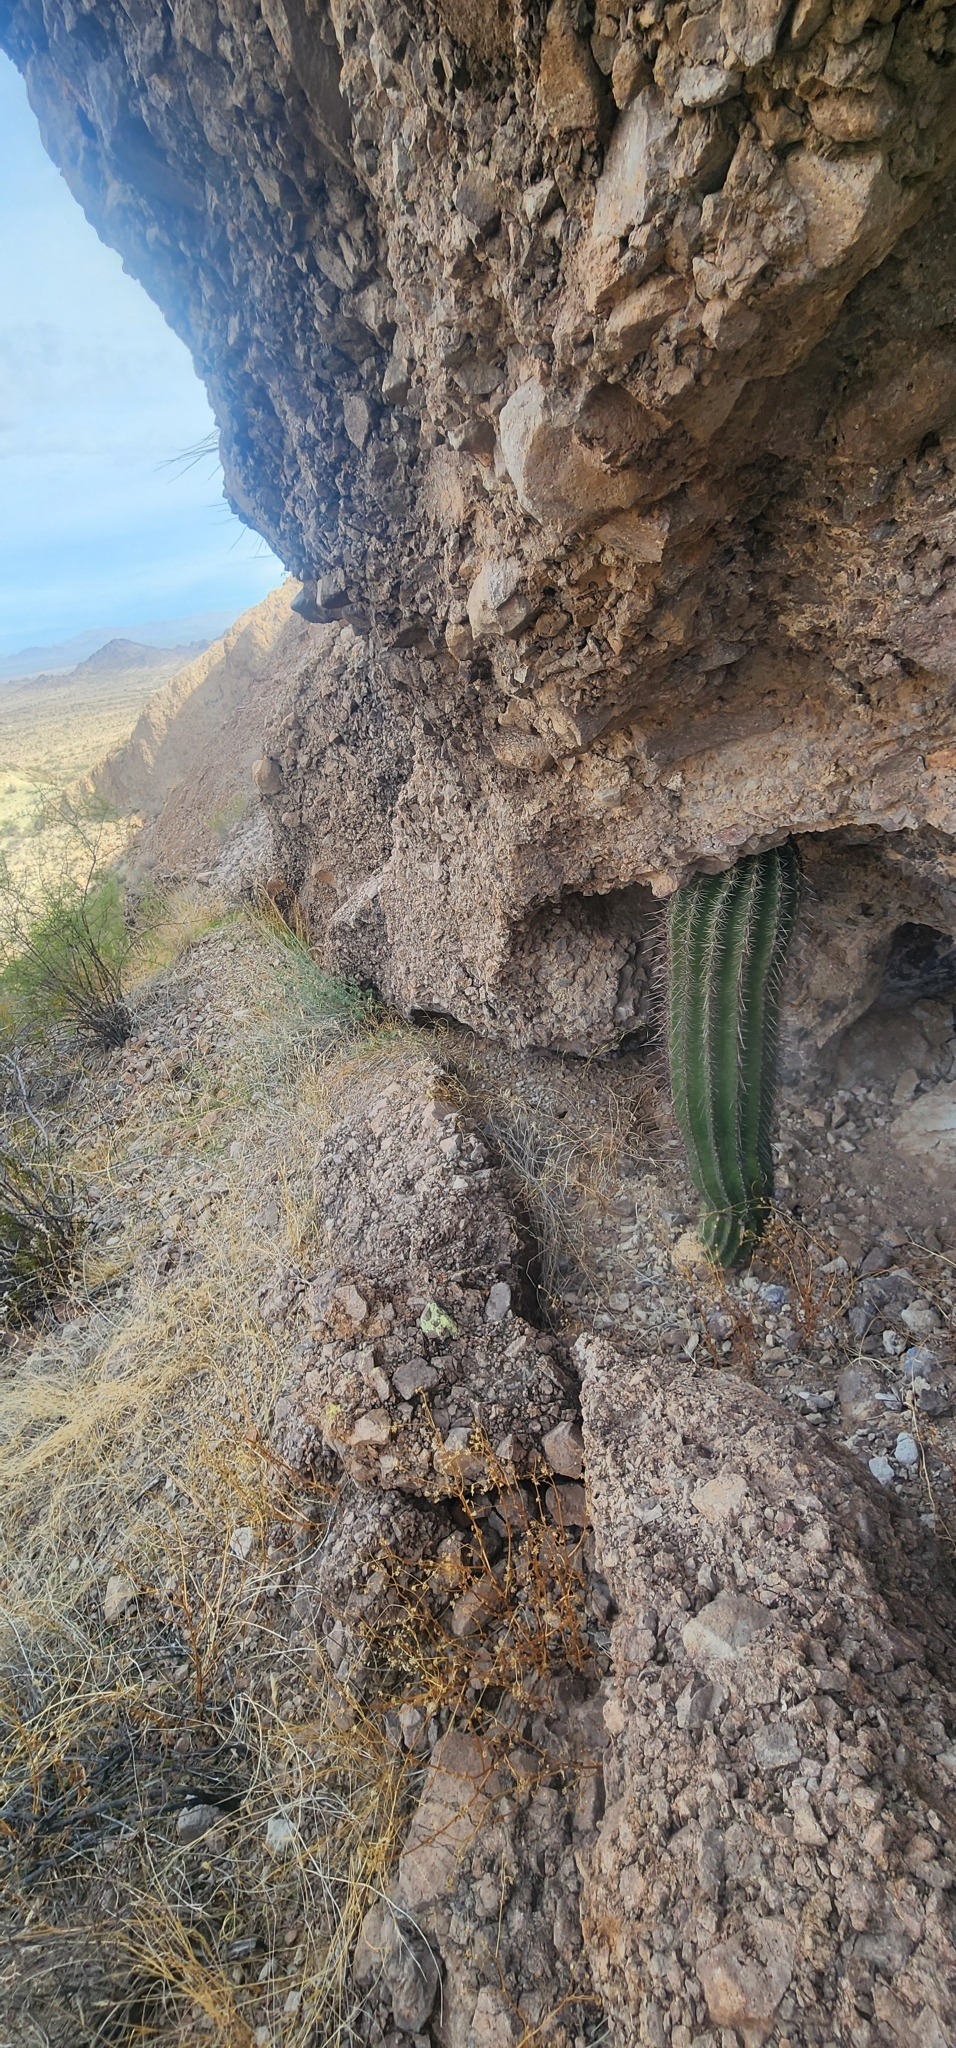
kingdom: Plantae
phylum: Tracheophyta
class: Magnoliopsida
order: Caryophyllales
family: Cactaceae
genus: Carnegiea
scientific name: Carnegiea gigantea
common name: Saguaro
